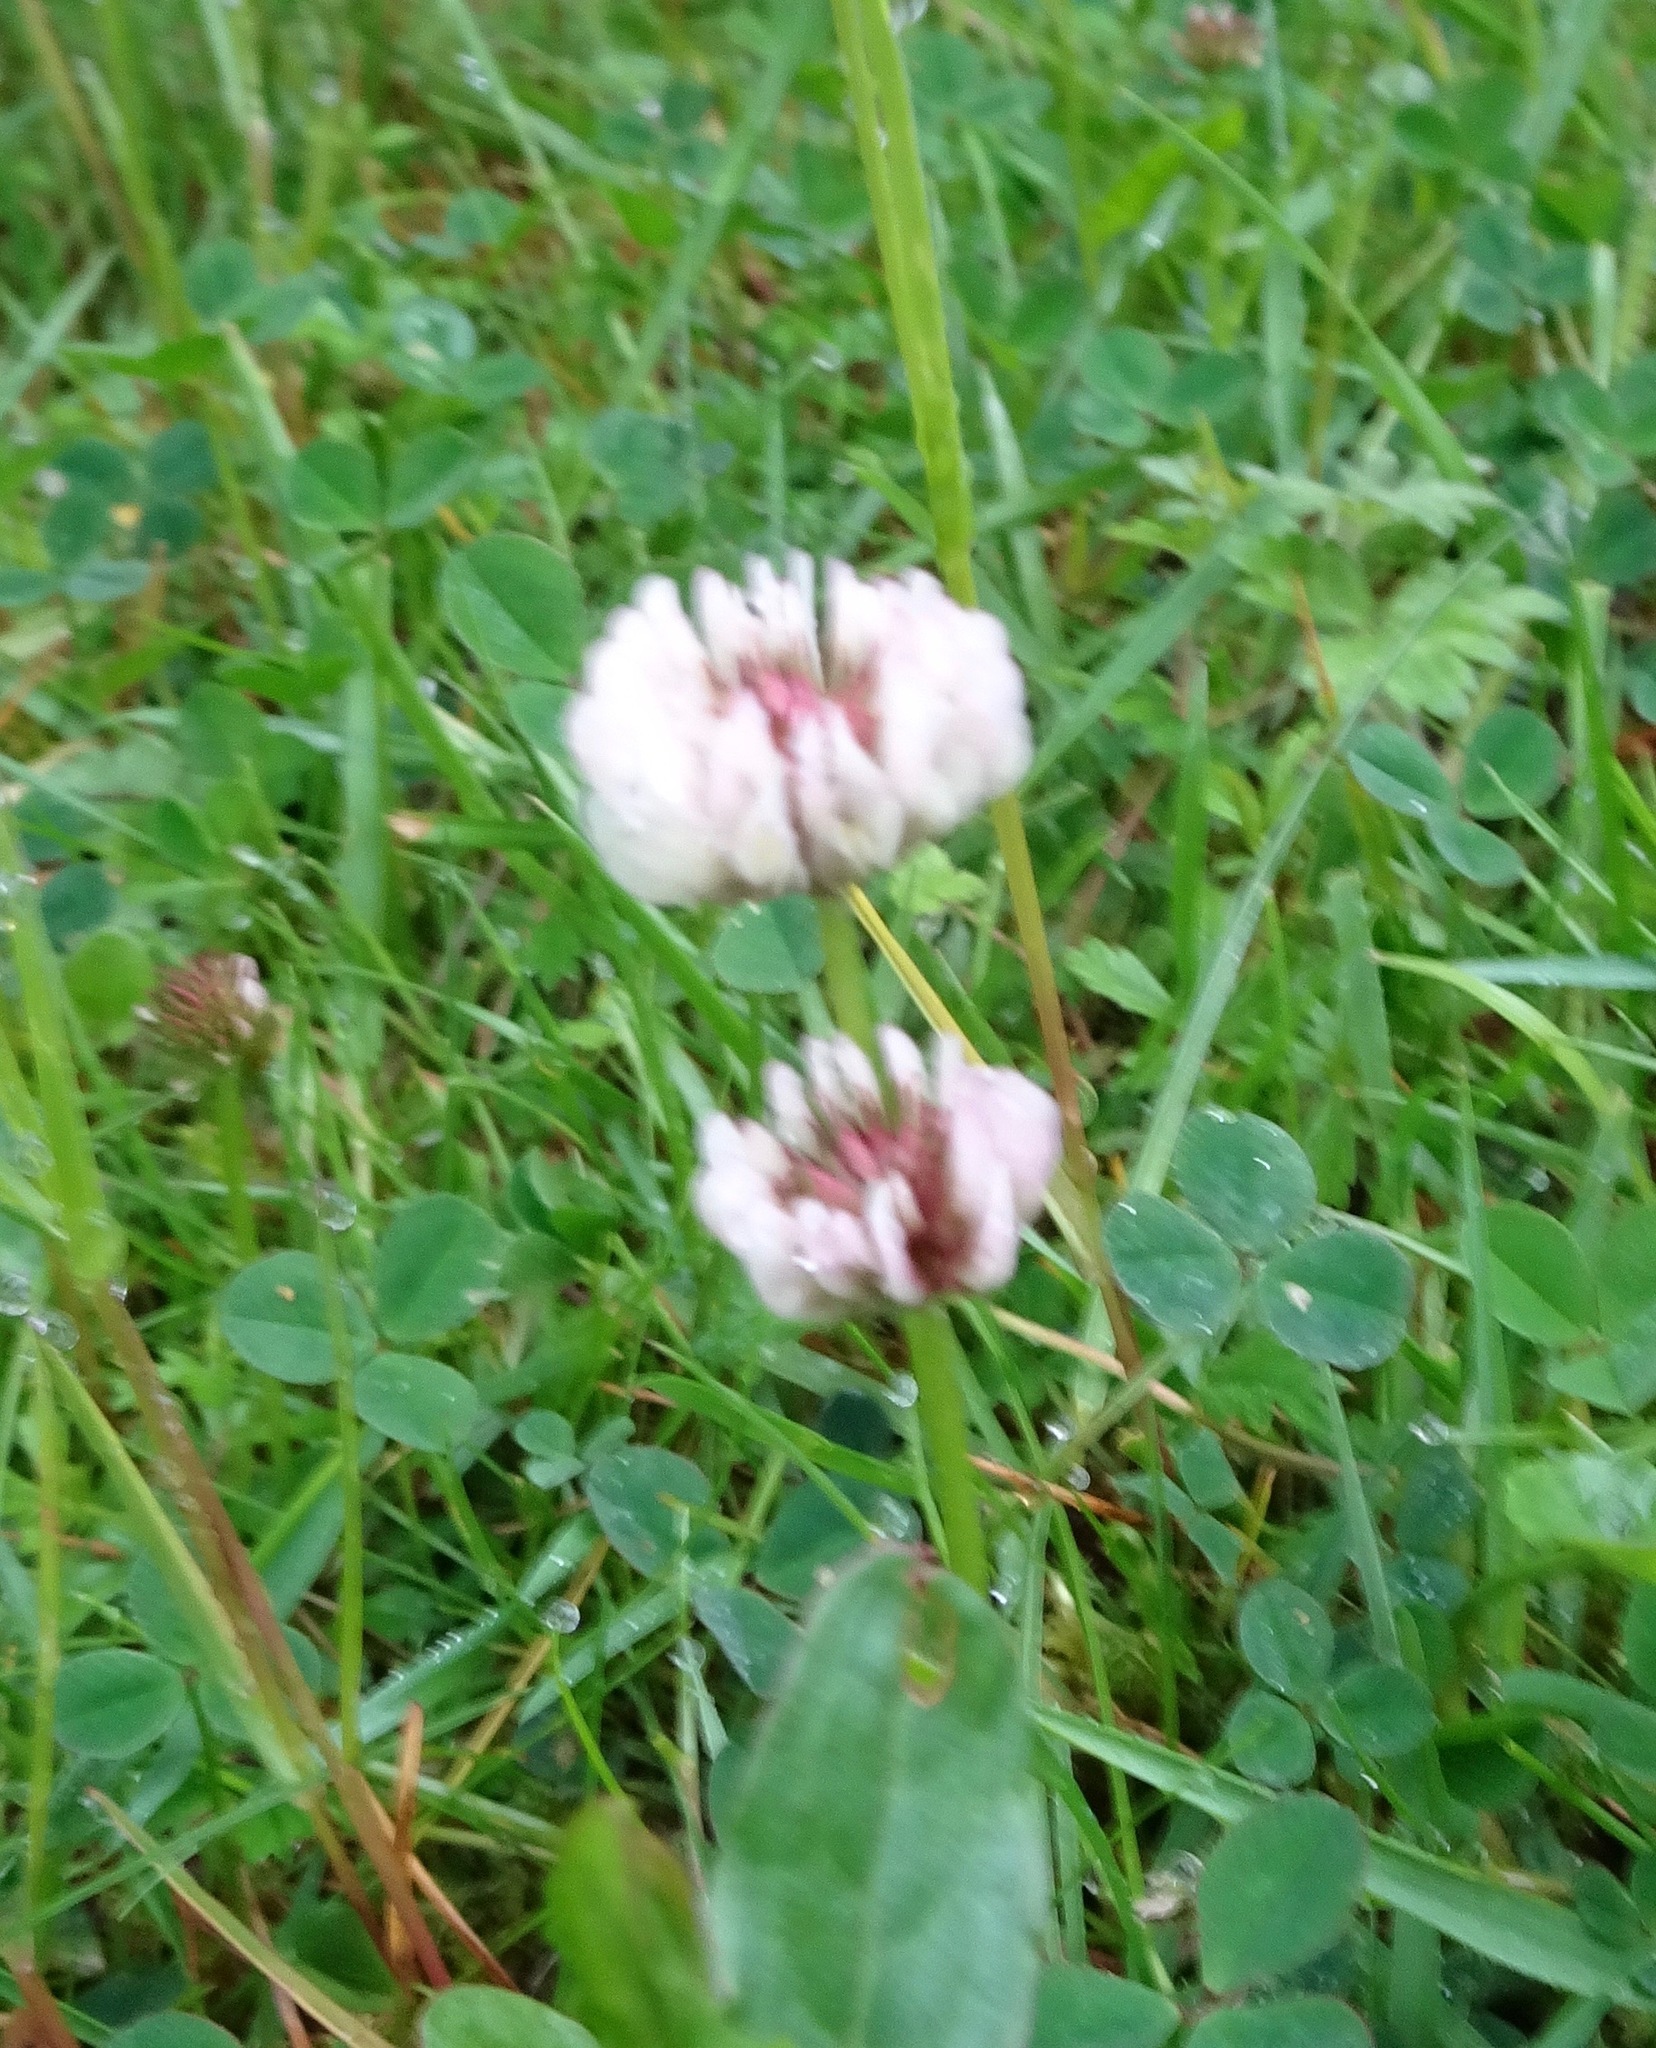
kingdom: Plantae
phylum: Tracheophyta
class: Magnoliopsida
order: Fabales
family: Fabaceae
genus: Trifolium
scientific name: Trifolium repens
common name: White clover
